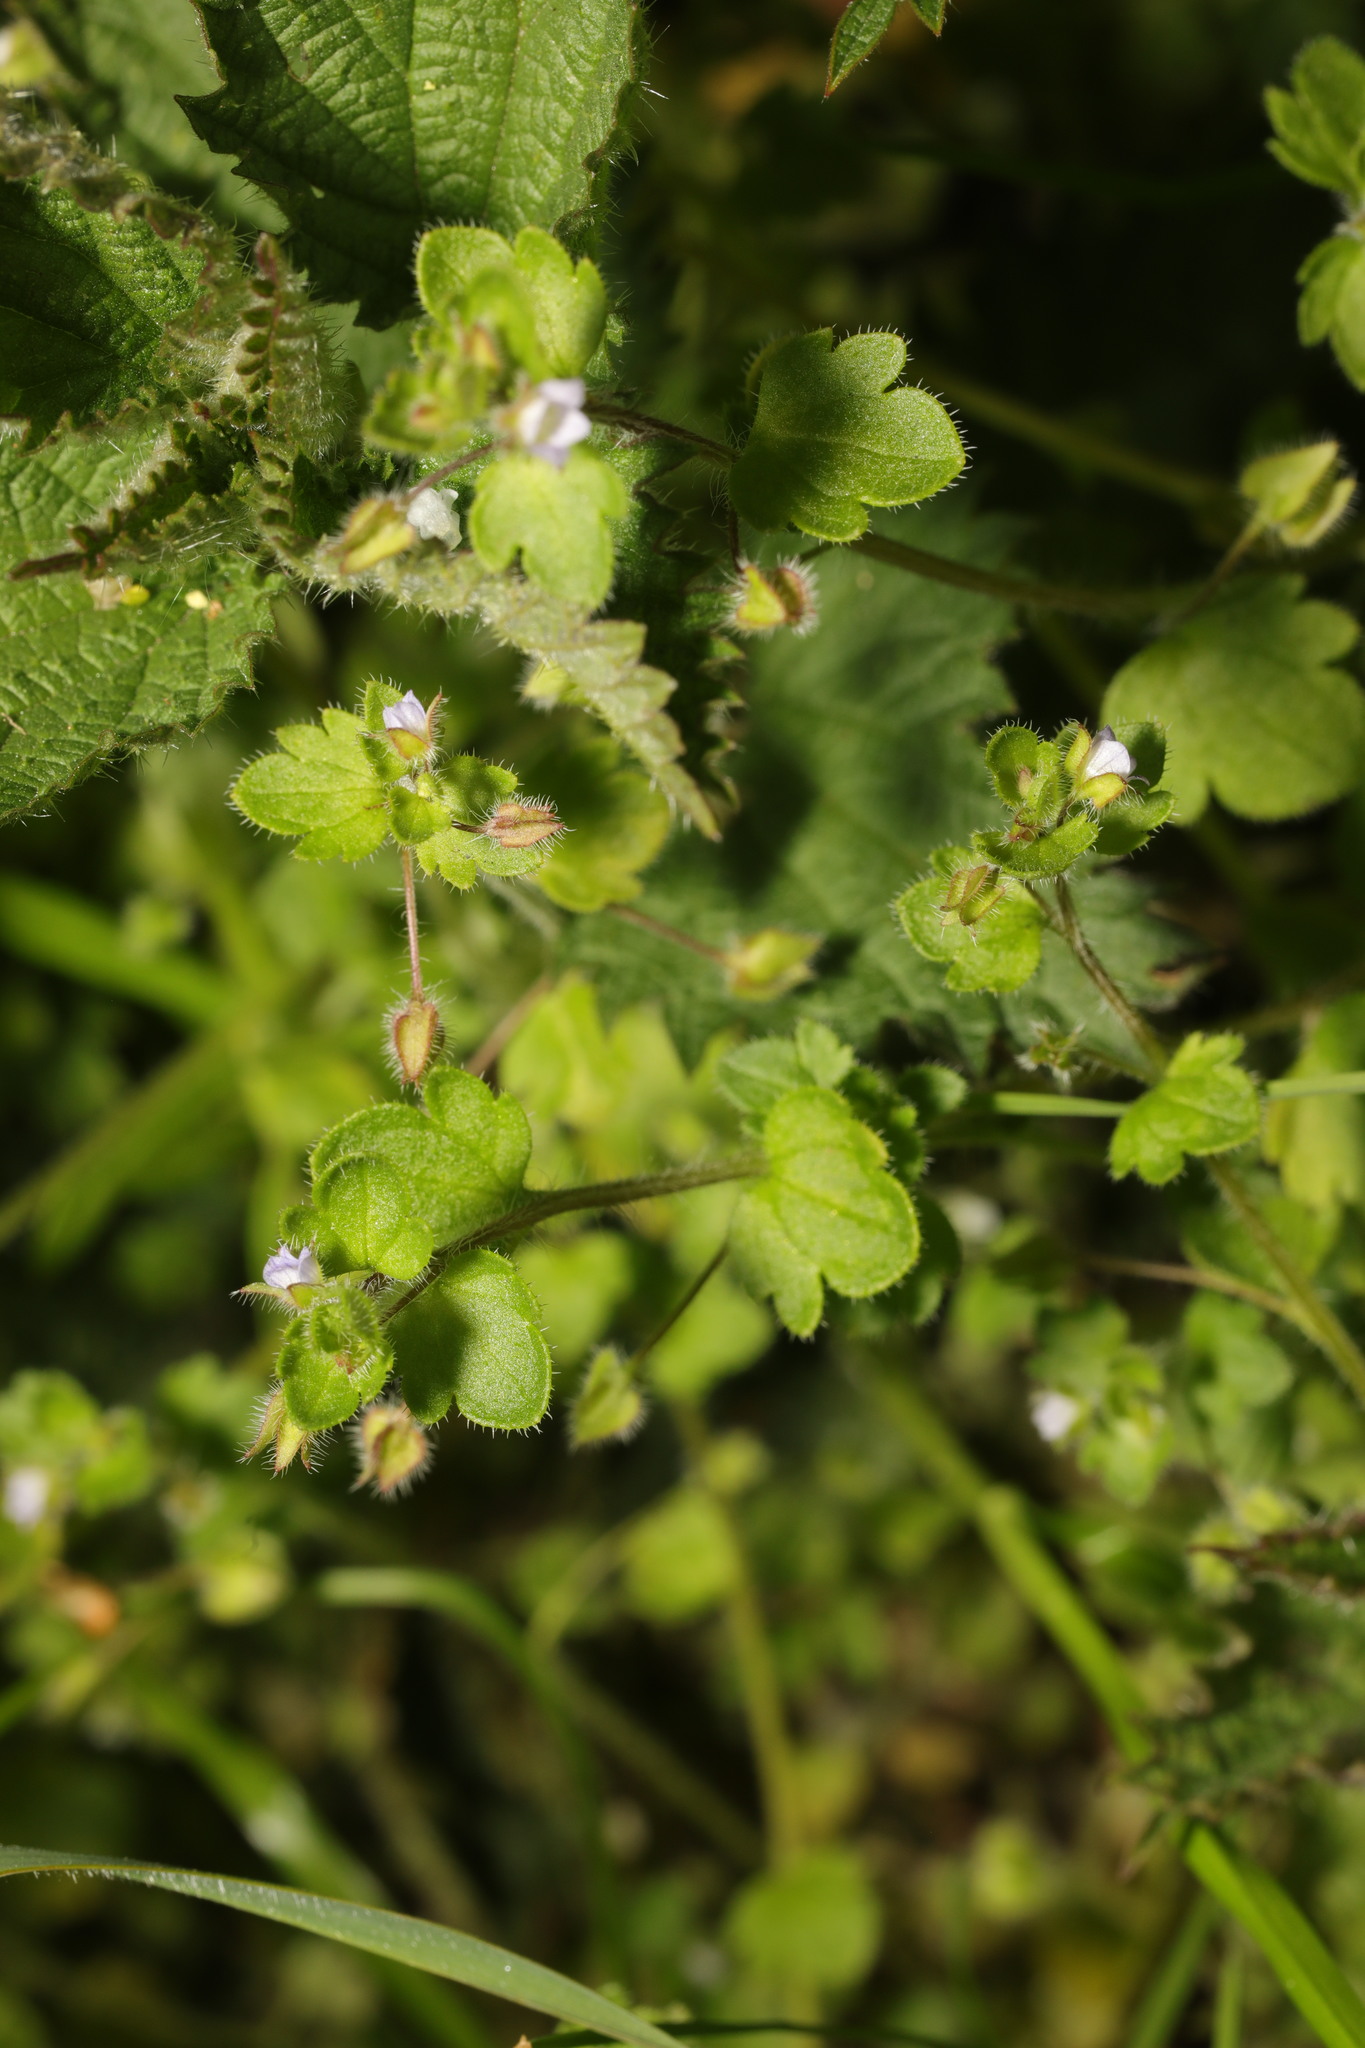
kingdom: Plantae
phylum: Tracheophyta
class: Magnoliopsida
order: Lamiales
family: Plantaginaceae
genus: Veronica
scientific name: Veronica hederifolia
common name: Ivy-leaved speedwell
